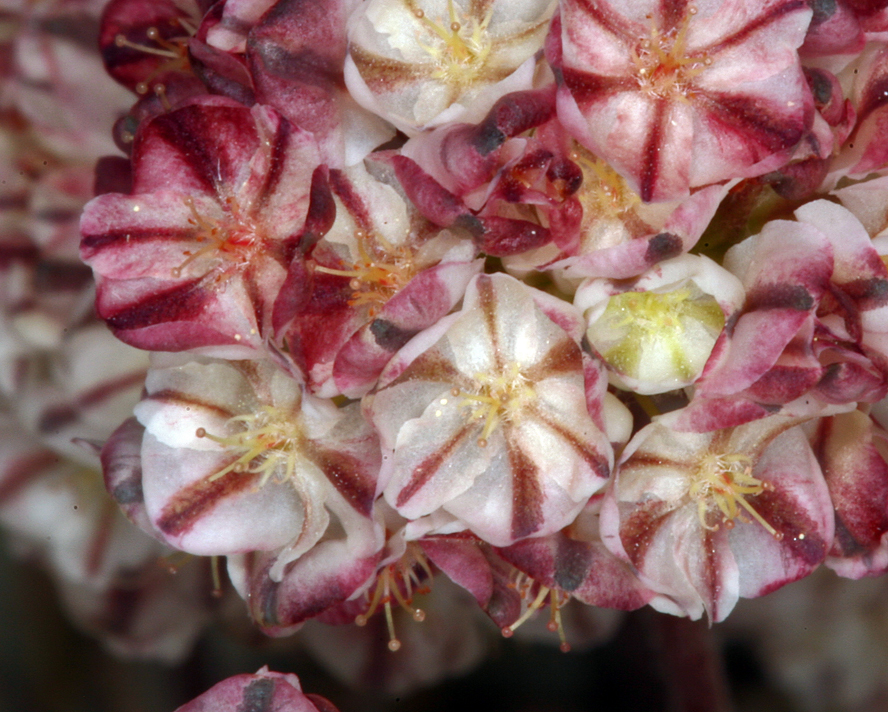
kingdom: Plantae
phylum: Tracheophyta
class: Magnoliopsida
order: Caryophyllales
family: Polygonaceae
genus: Eriogonum
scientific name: Eriogonum ovalifolium
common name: Cushion buckwheat
